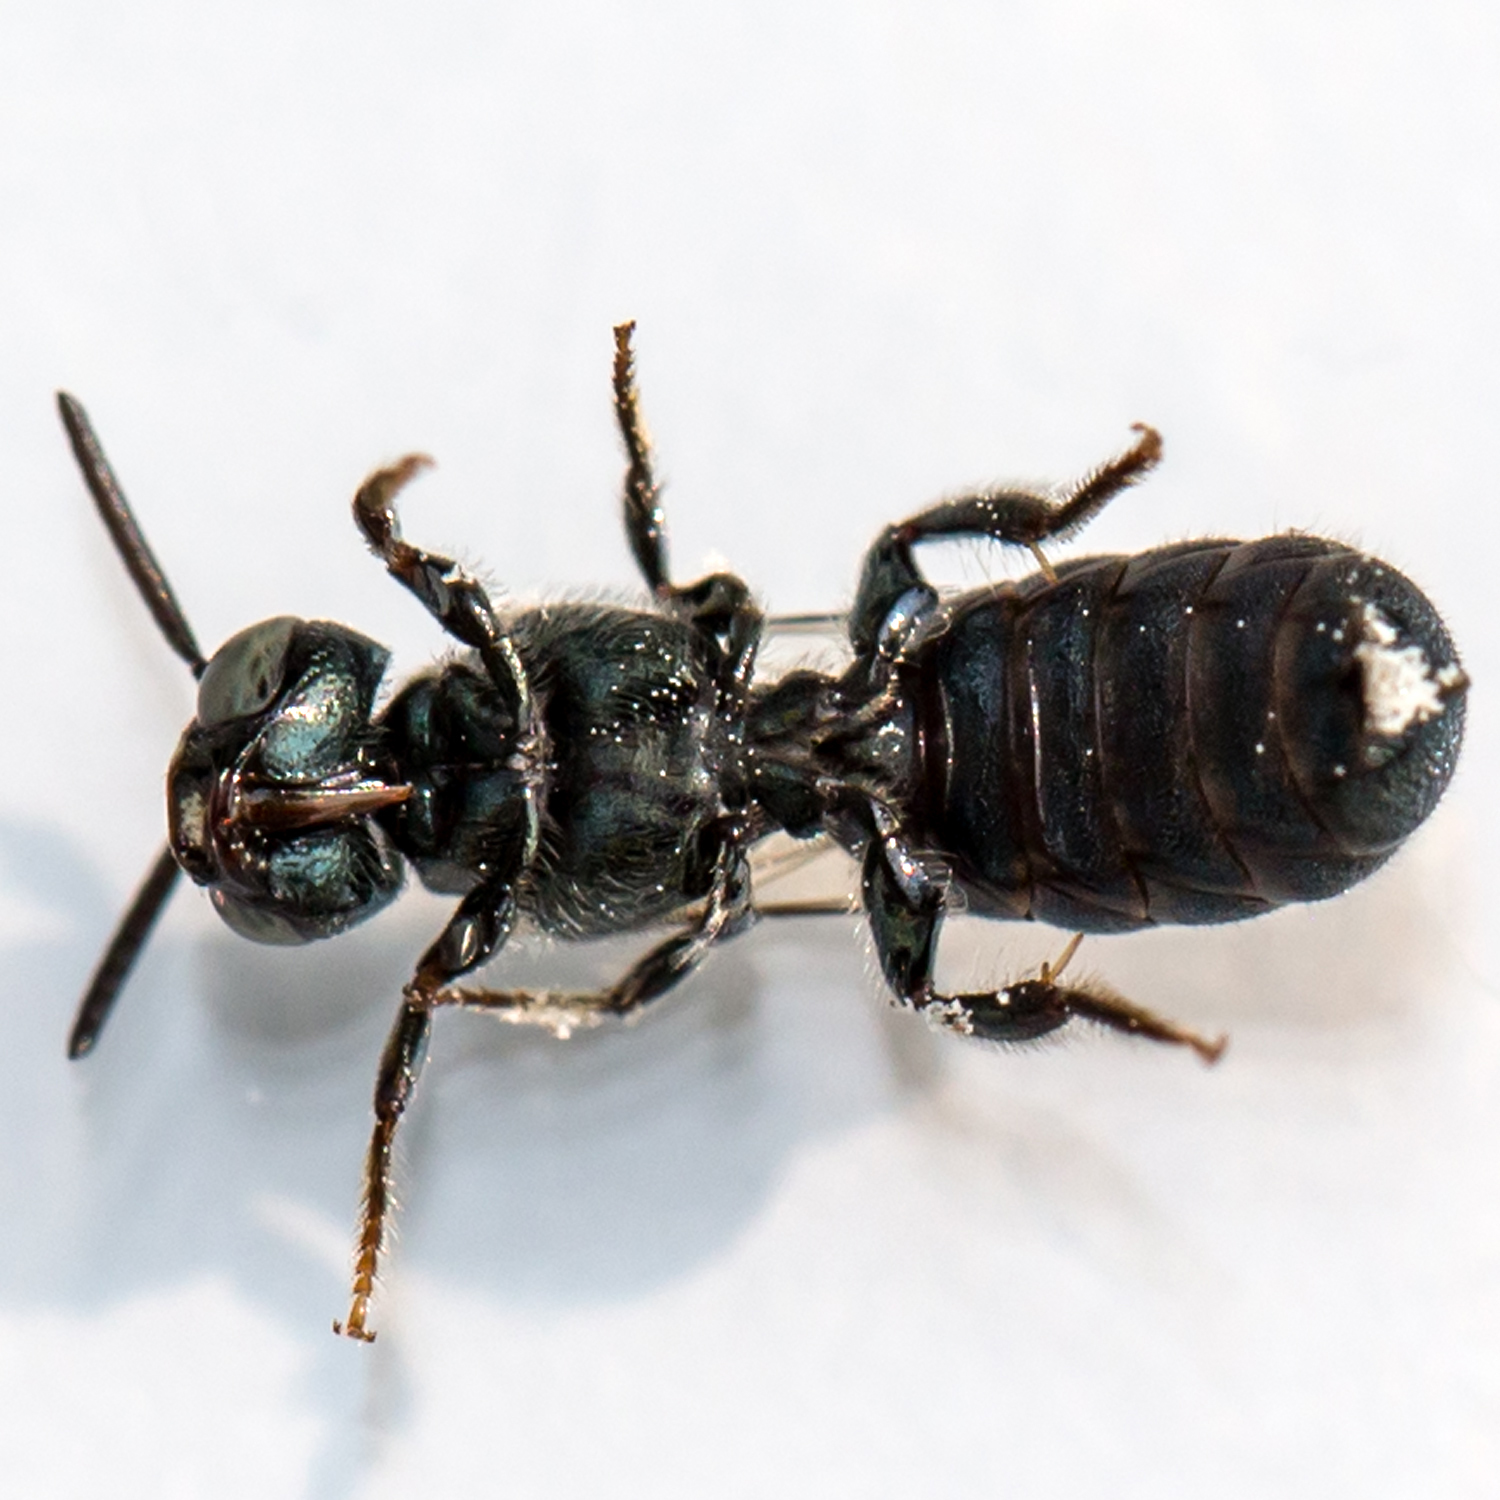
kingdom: Animalia
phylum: Arthropoda
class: Insecta
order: Hymenoptera
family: Apidae
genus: Ceratina
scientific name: Ceratina calcarata
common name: Spurred carpenter bee
